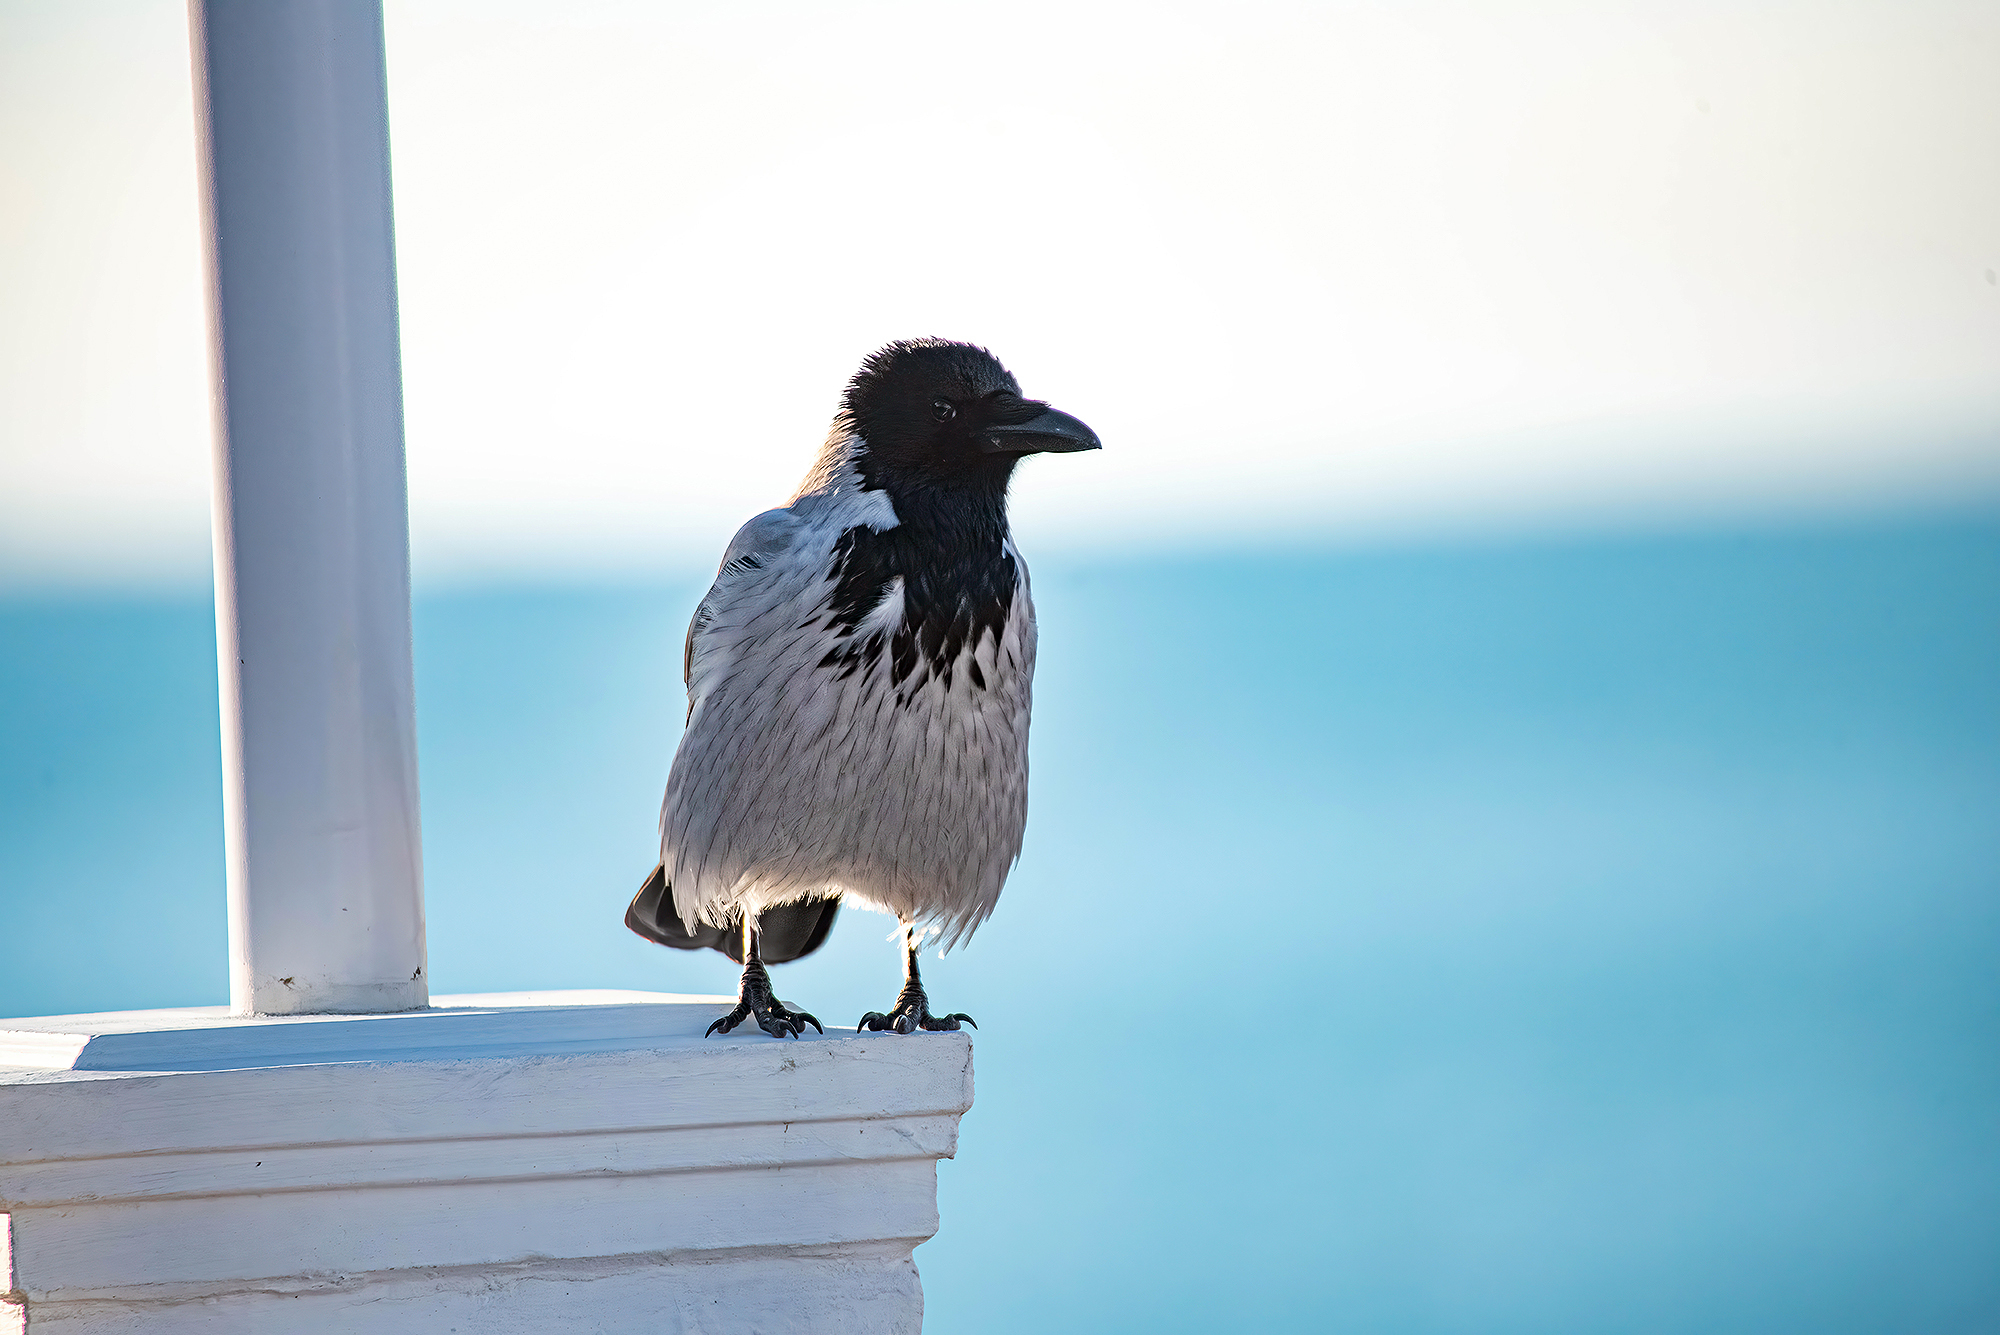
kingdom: Animalia
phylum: Chordata
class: Aves
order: Passeriformes
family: Corvidae
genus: Corvus
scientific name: Corvus cornix
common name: Hooded crow
